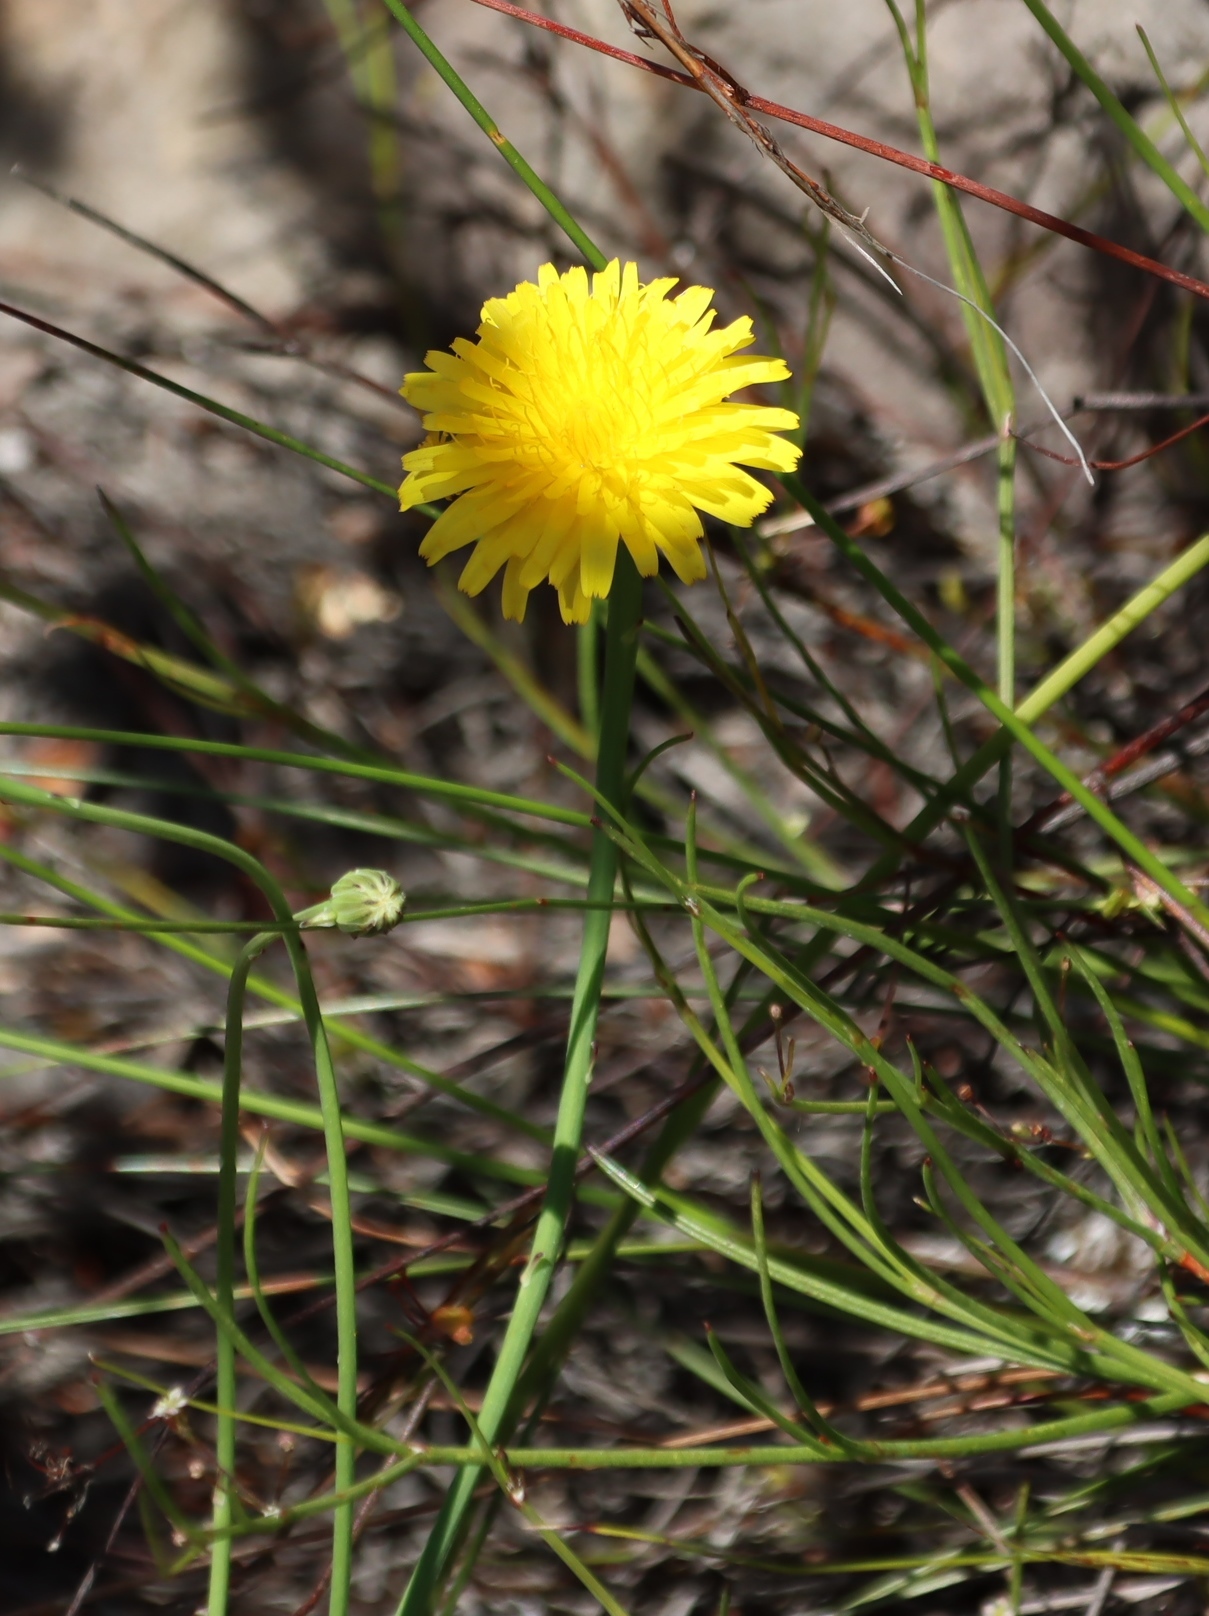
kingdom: Plantae
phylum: Tracheophyta
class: Magnoliopsida
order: Asterales
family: Asteraceae
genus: Hypochaeris
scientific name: Hypochaeris radicata
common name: Flatweed
